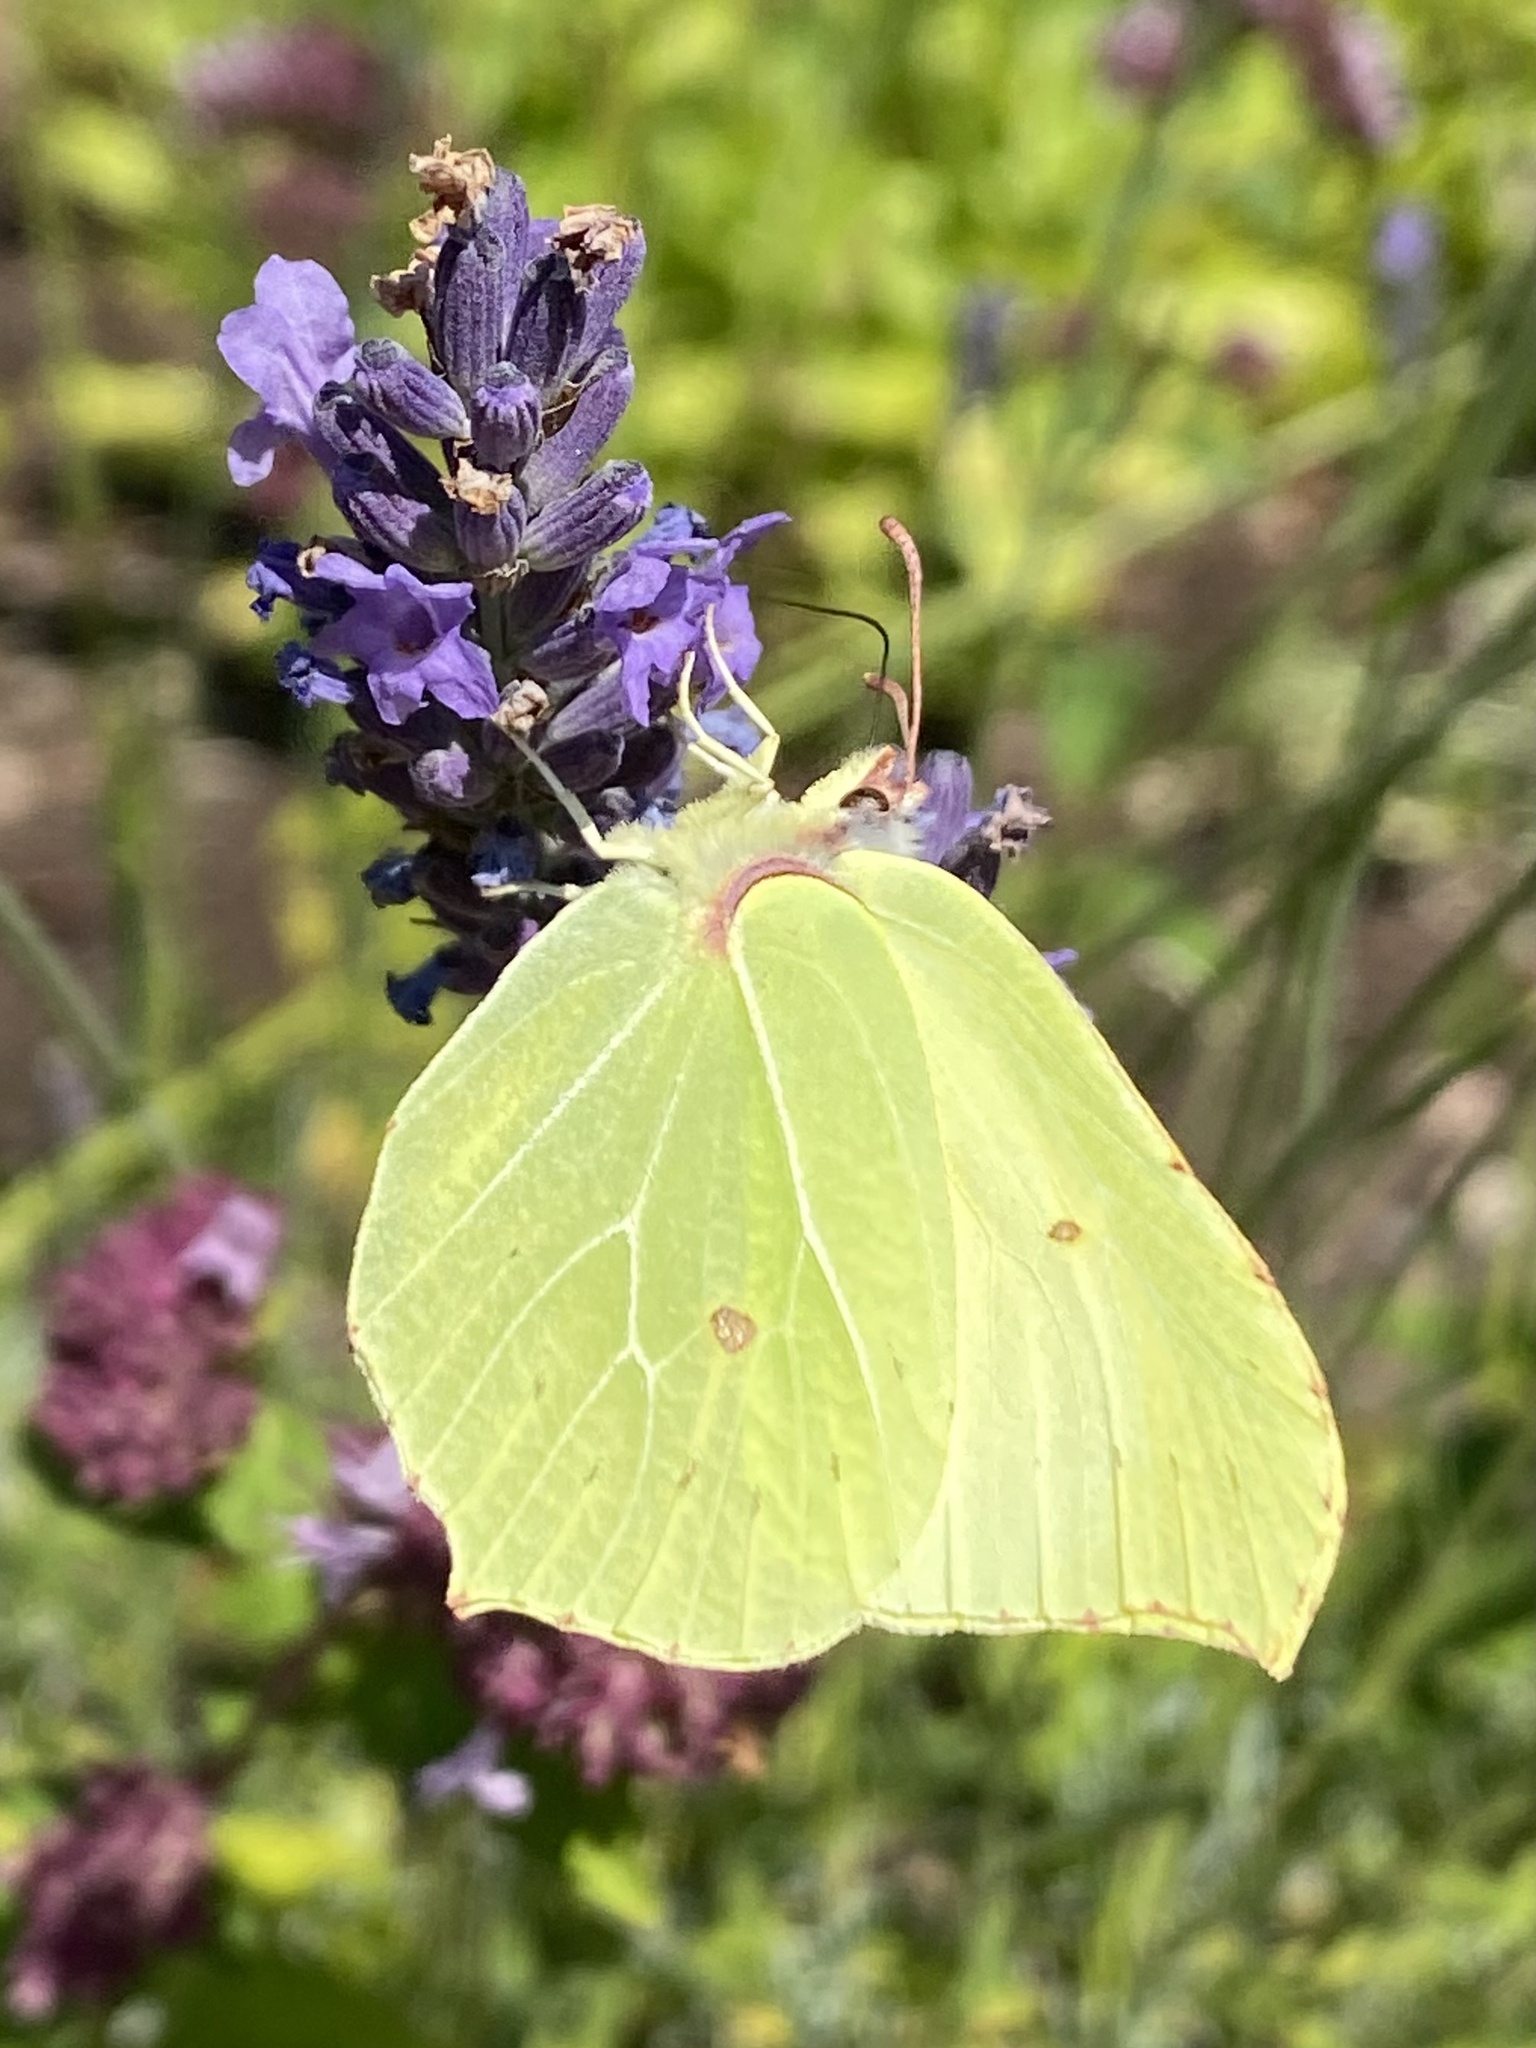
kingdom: Animalia
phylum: Arthropoda
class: Insecta
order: Lepidoptera
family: Pieridae
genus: Gonepteryx
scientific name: Gonepteryx rhamni
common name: Brimstone
